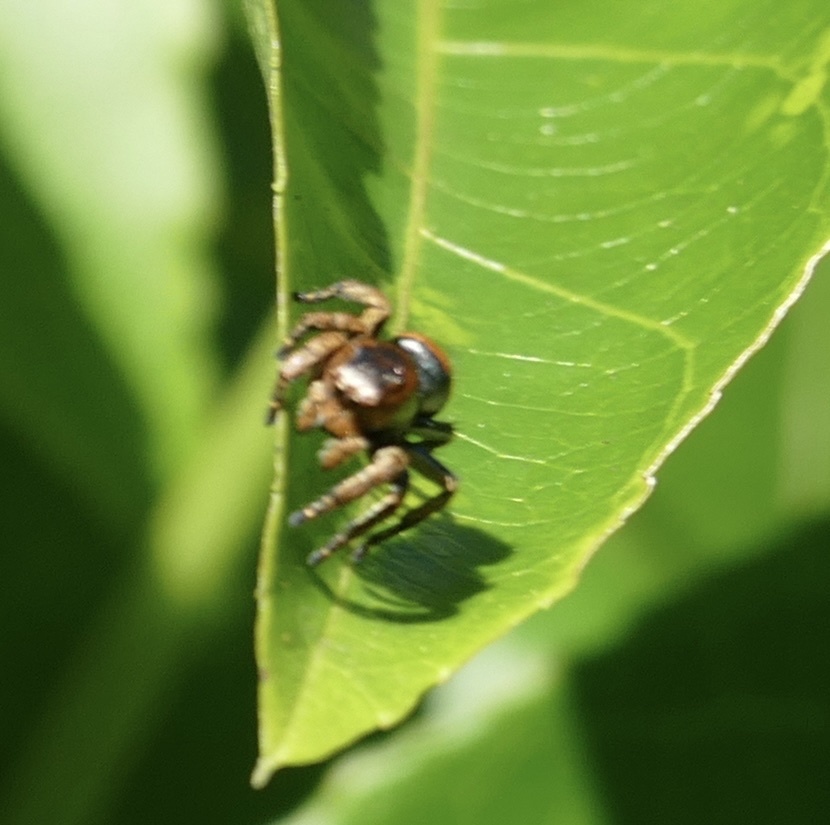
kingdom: Animalia
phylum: Arthropoda
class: Arachnida
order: Araneae
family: Salticidae
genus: Baryphas
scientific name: Baryphas ahenus
